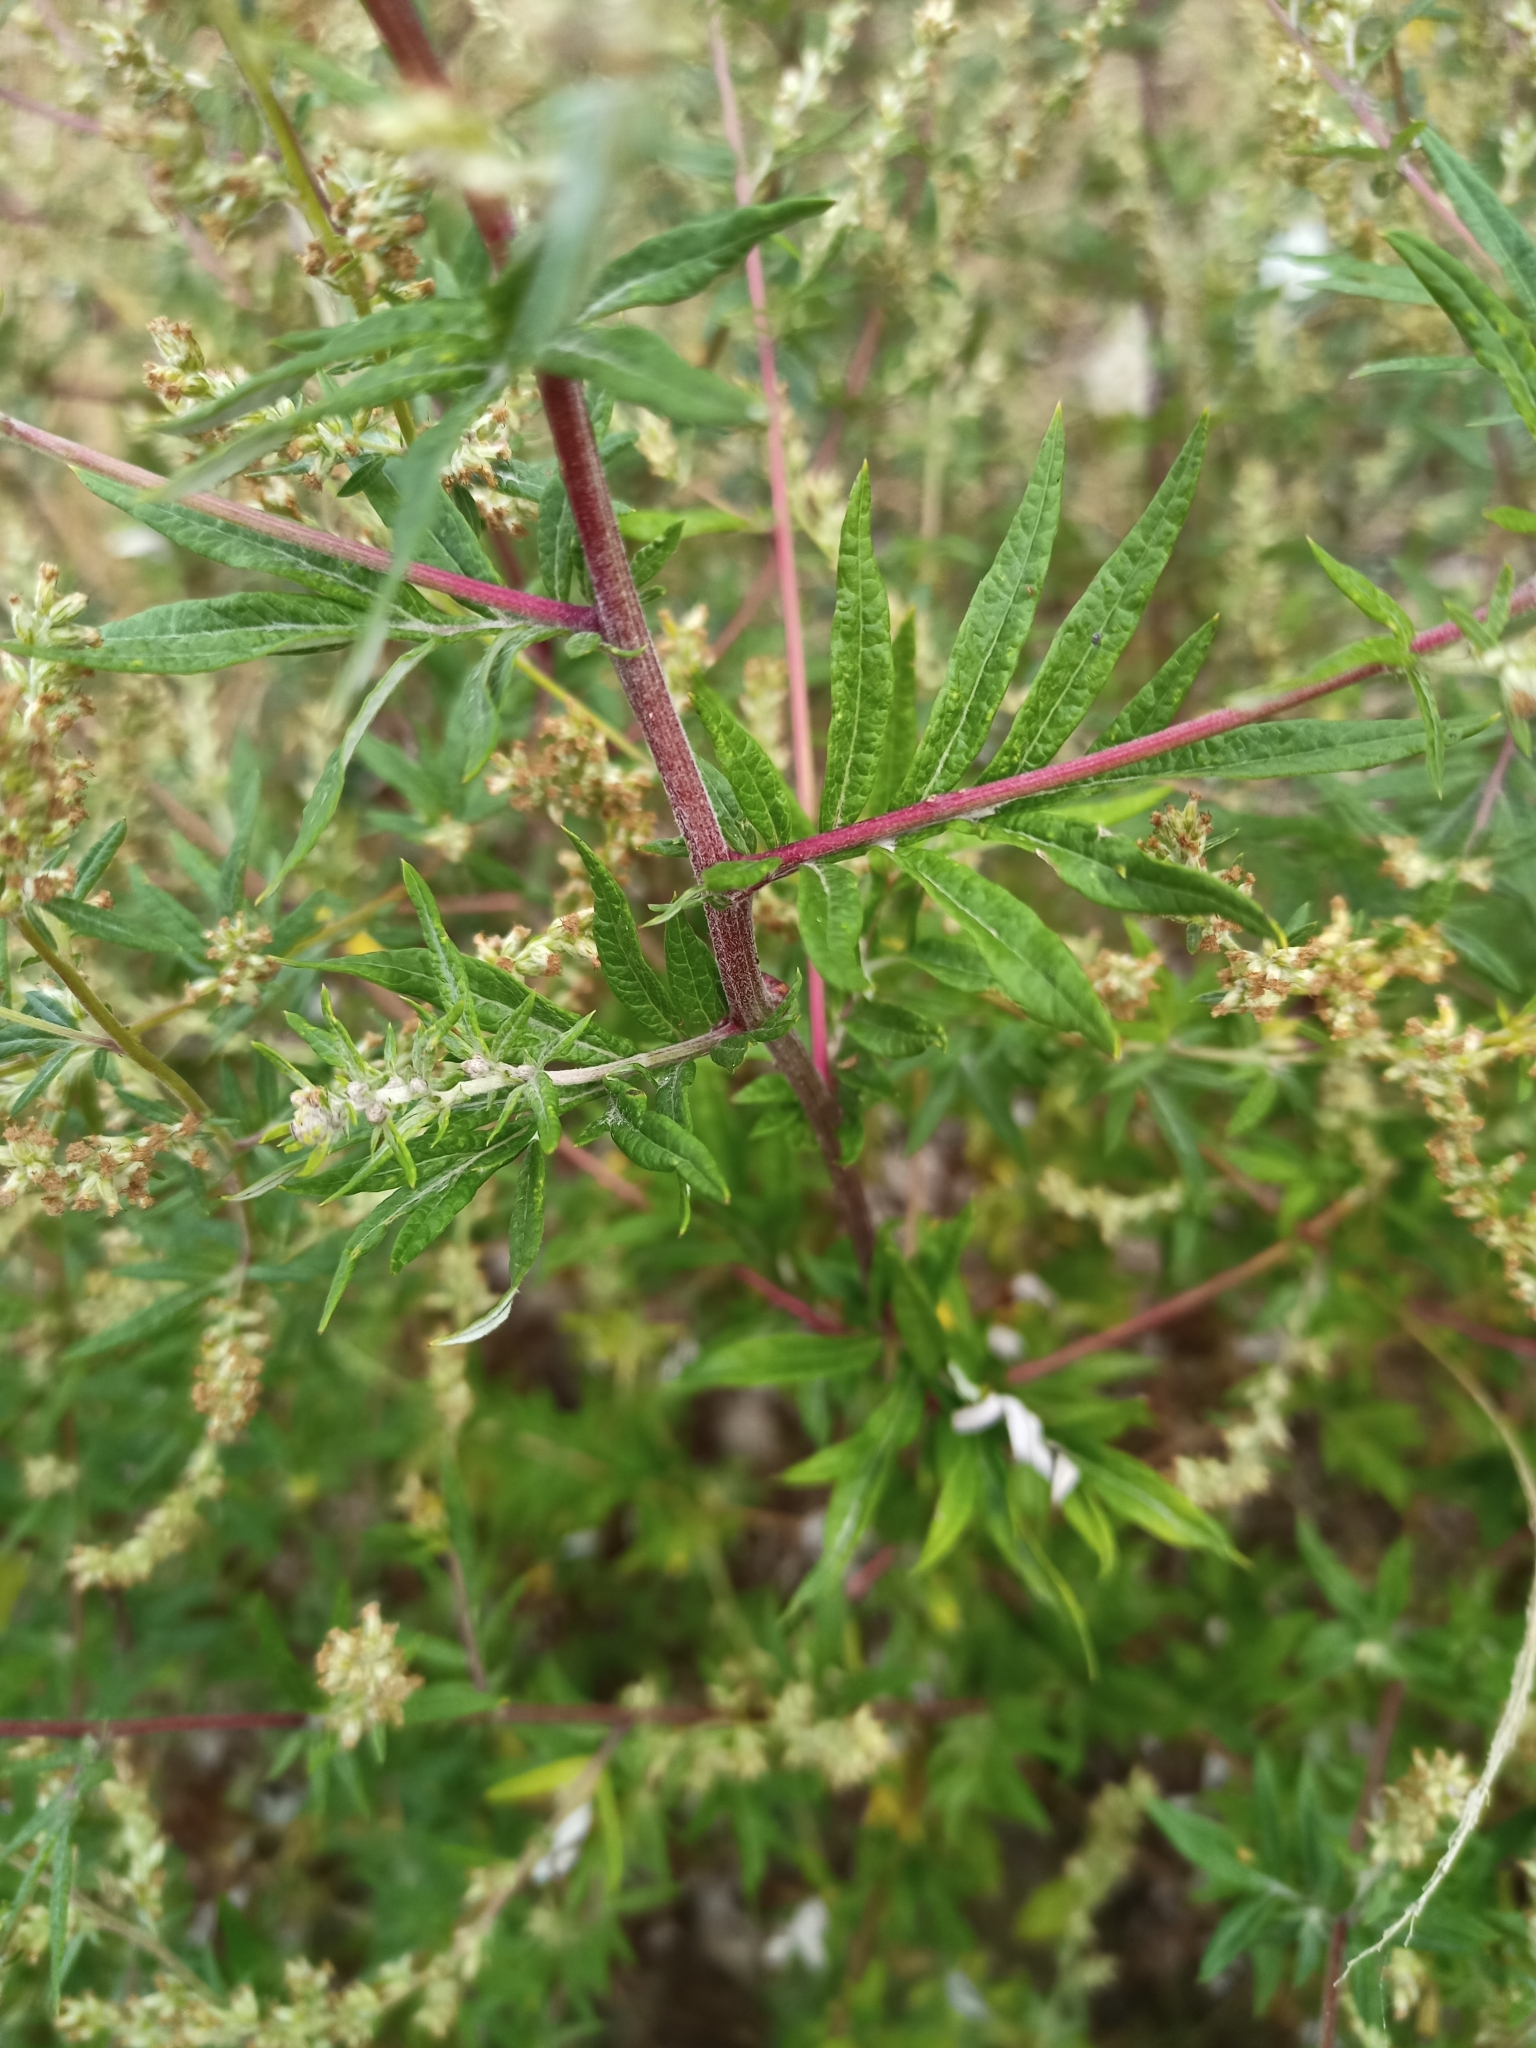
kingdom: Plantae
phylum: Tracheophyta
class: Magnoliopsida
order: Asterales
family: Asteraceae
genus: Artemisia
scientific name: Artemisia vulgaris
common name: Mugwort
